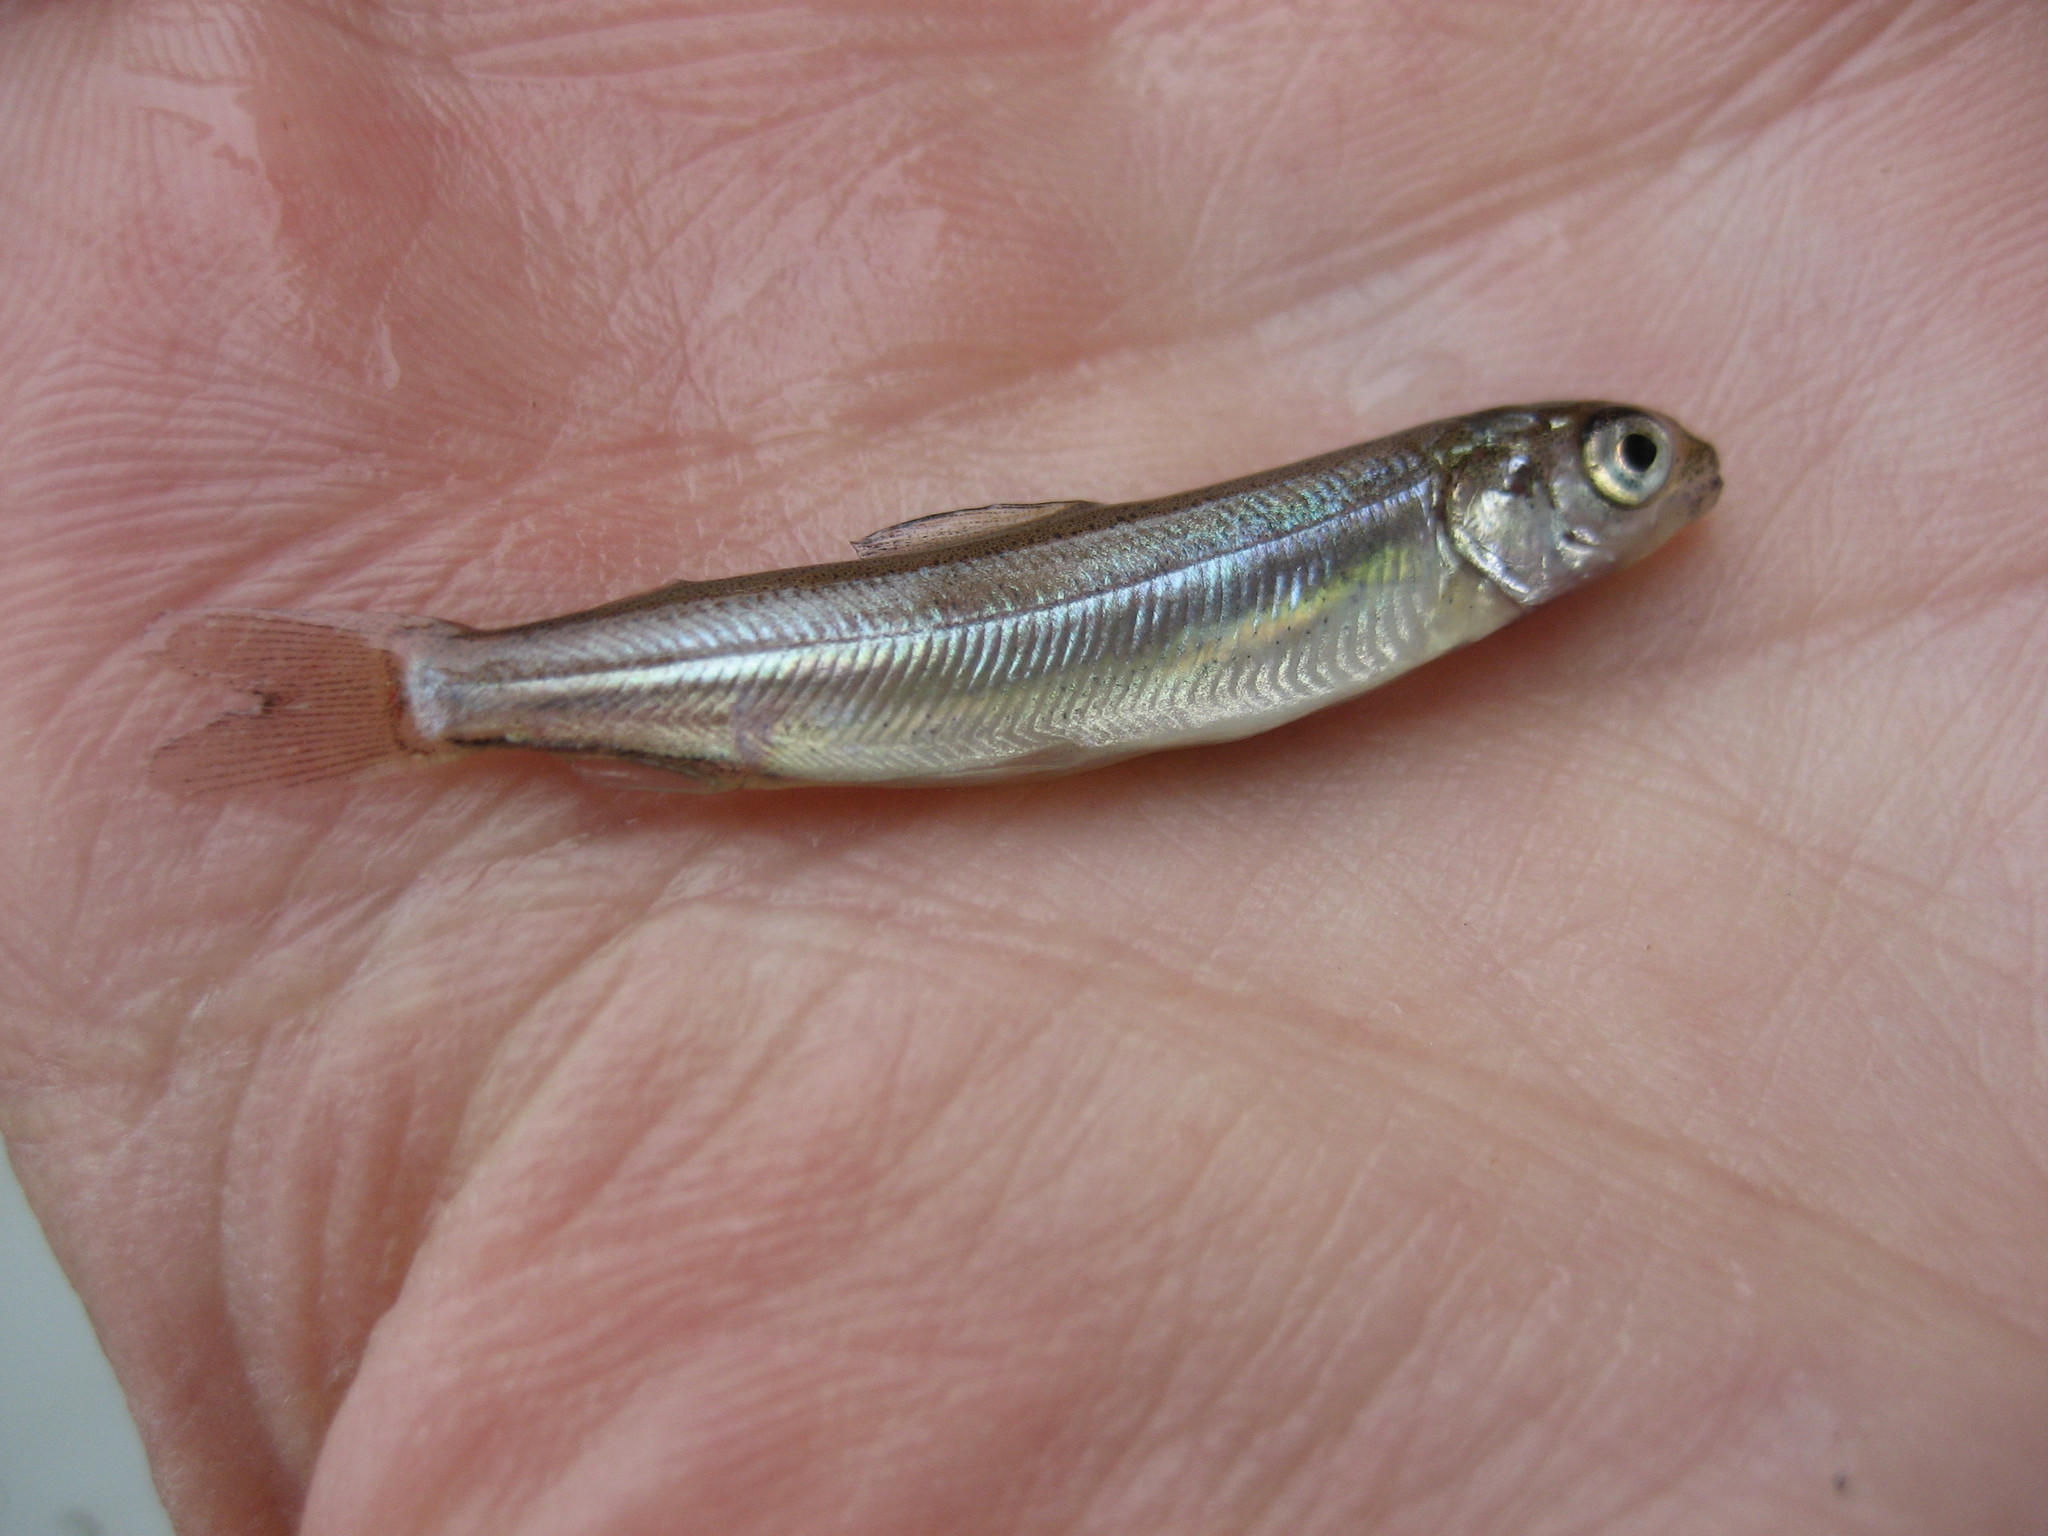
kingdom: Animalia
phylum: Chordata
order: Salmoniformes
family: Salmonidae
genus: Oncorhynchus
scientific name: Oncorhynchus gorbuscha
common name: Humpback salmon
